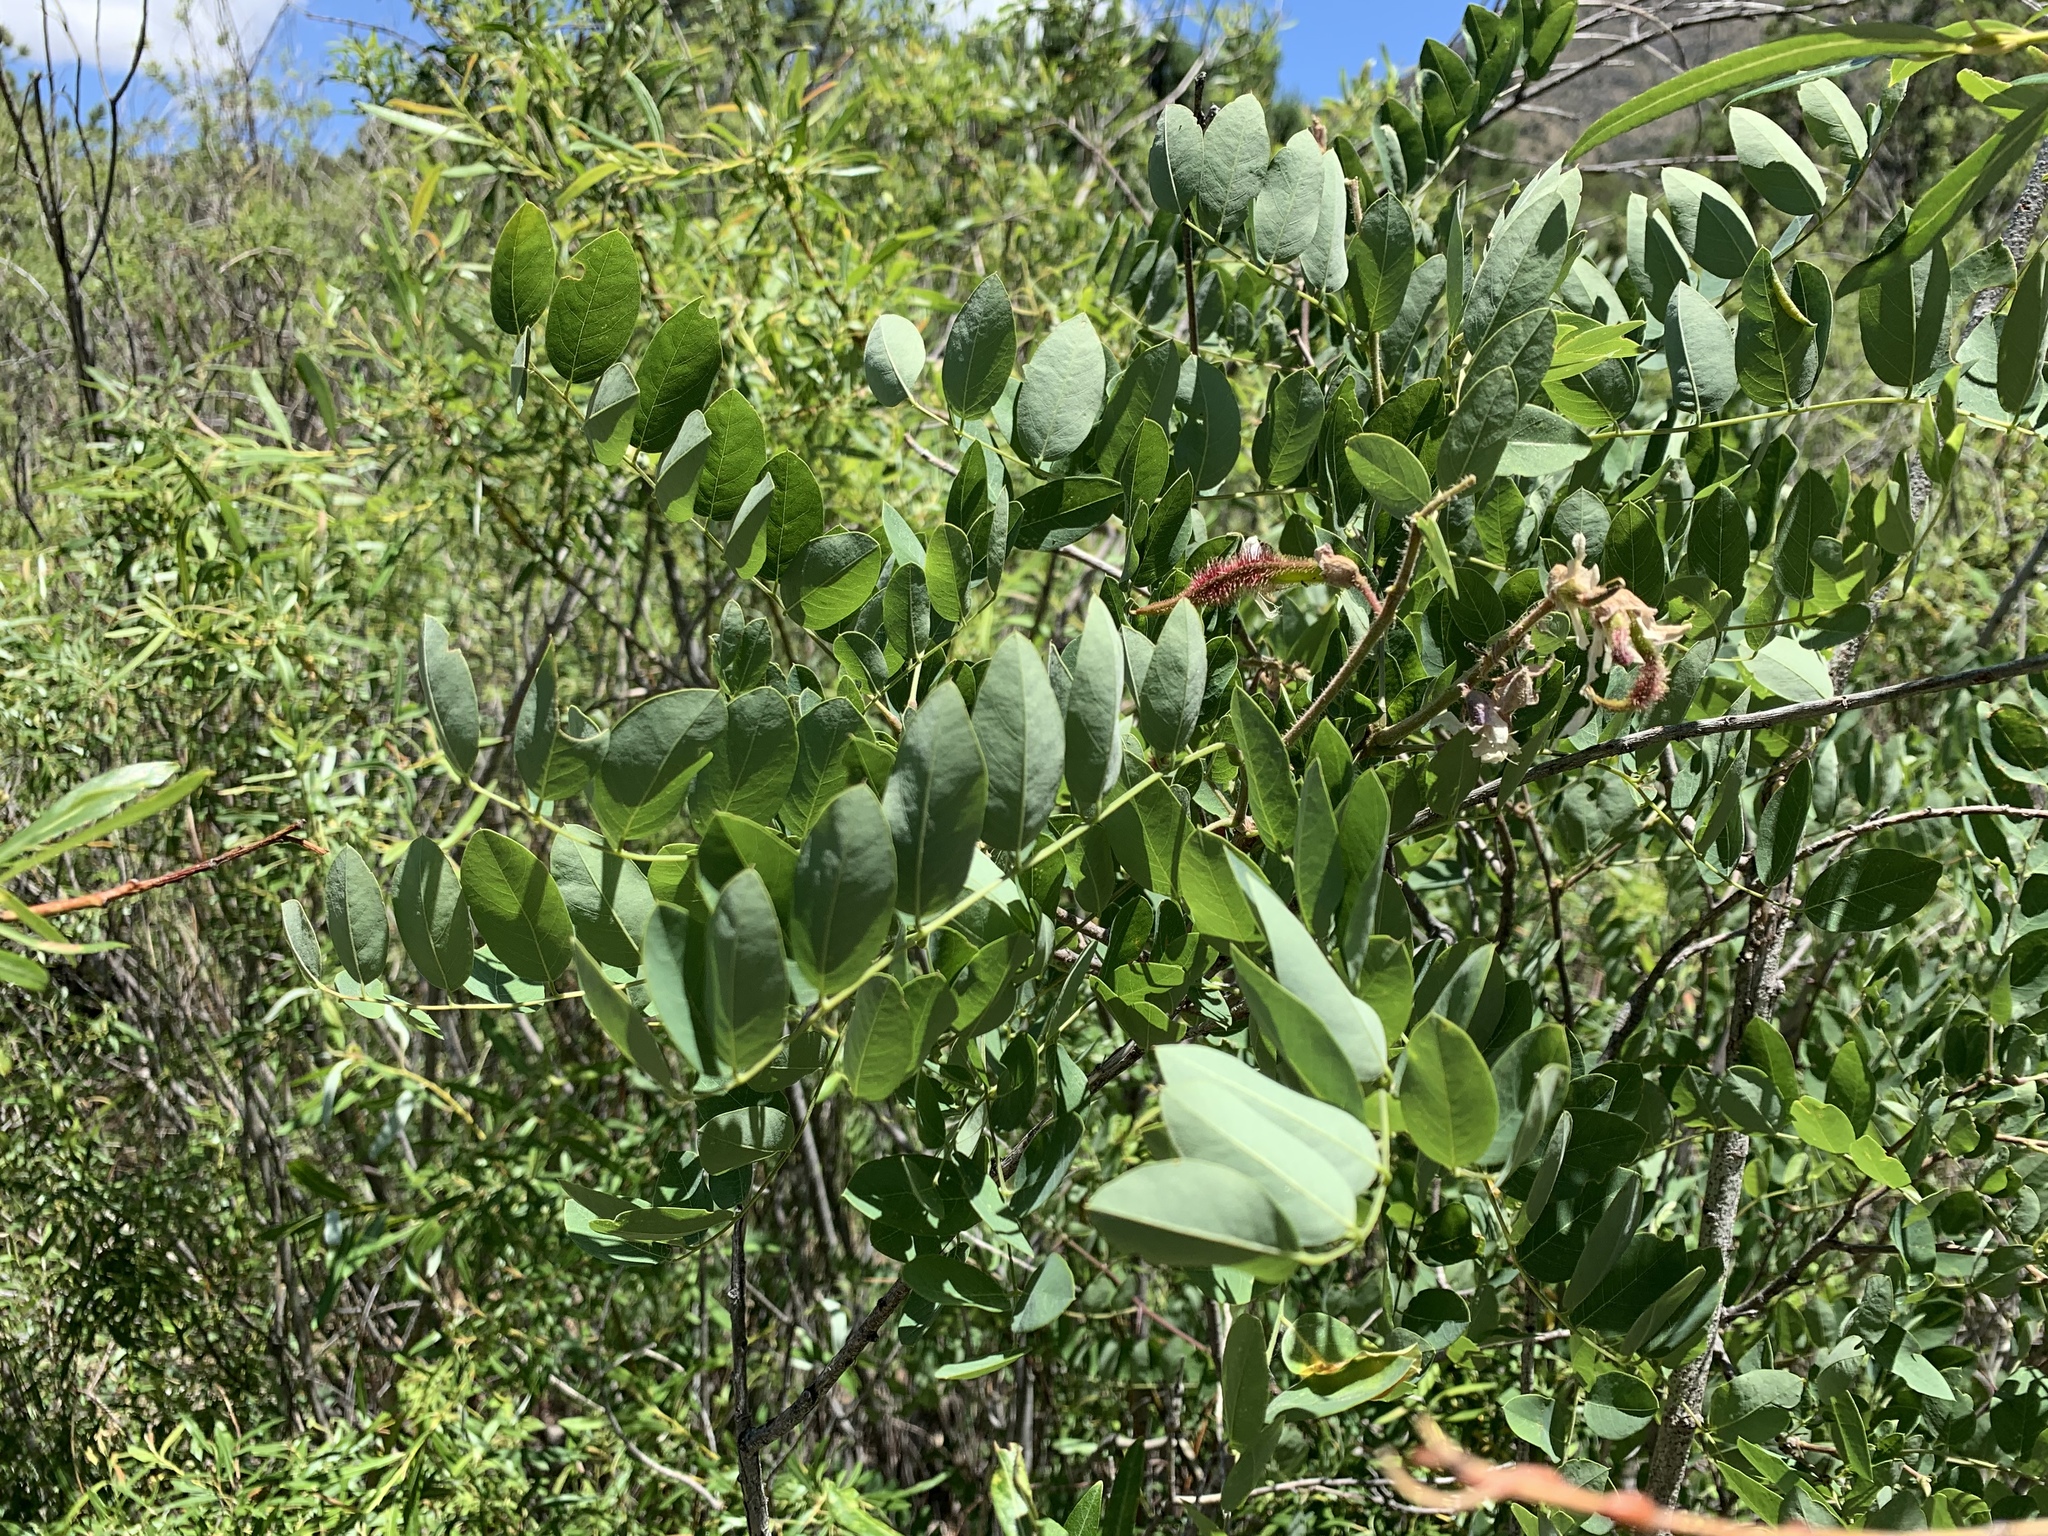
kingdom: Plantae
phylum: Tracheophyta
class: Magnoliopsida
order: Fagales
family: Juglandaceae
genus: Juglans
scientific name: Juglans major
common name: Arizona walnut
